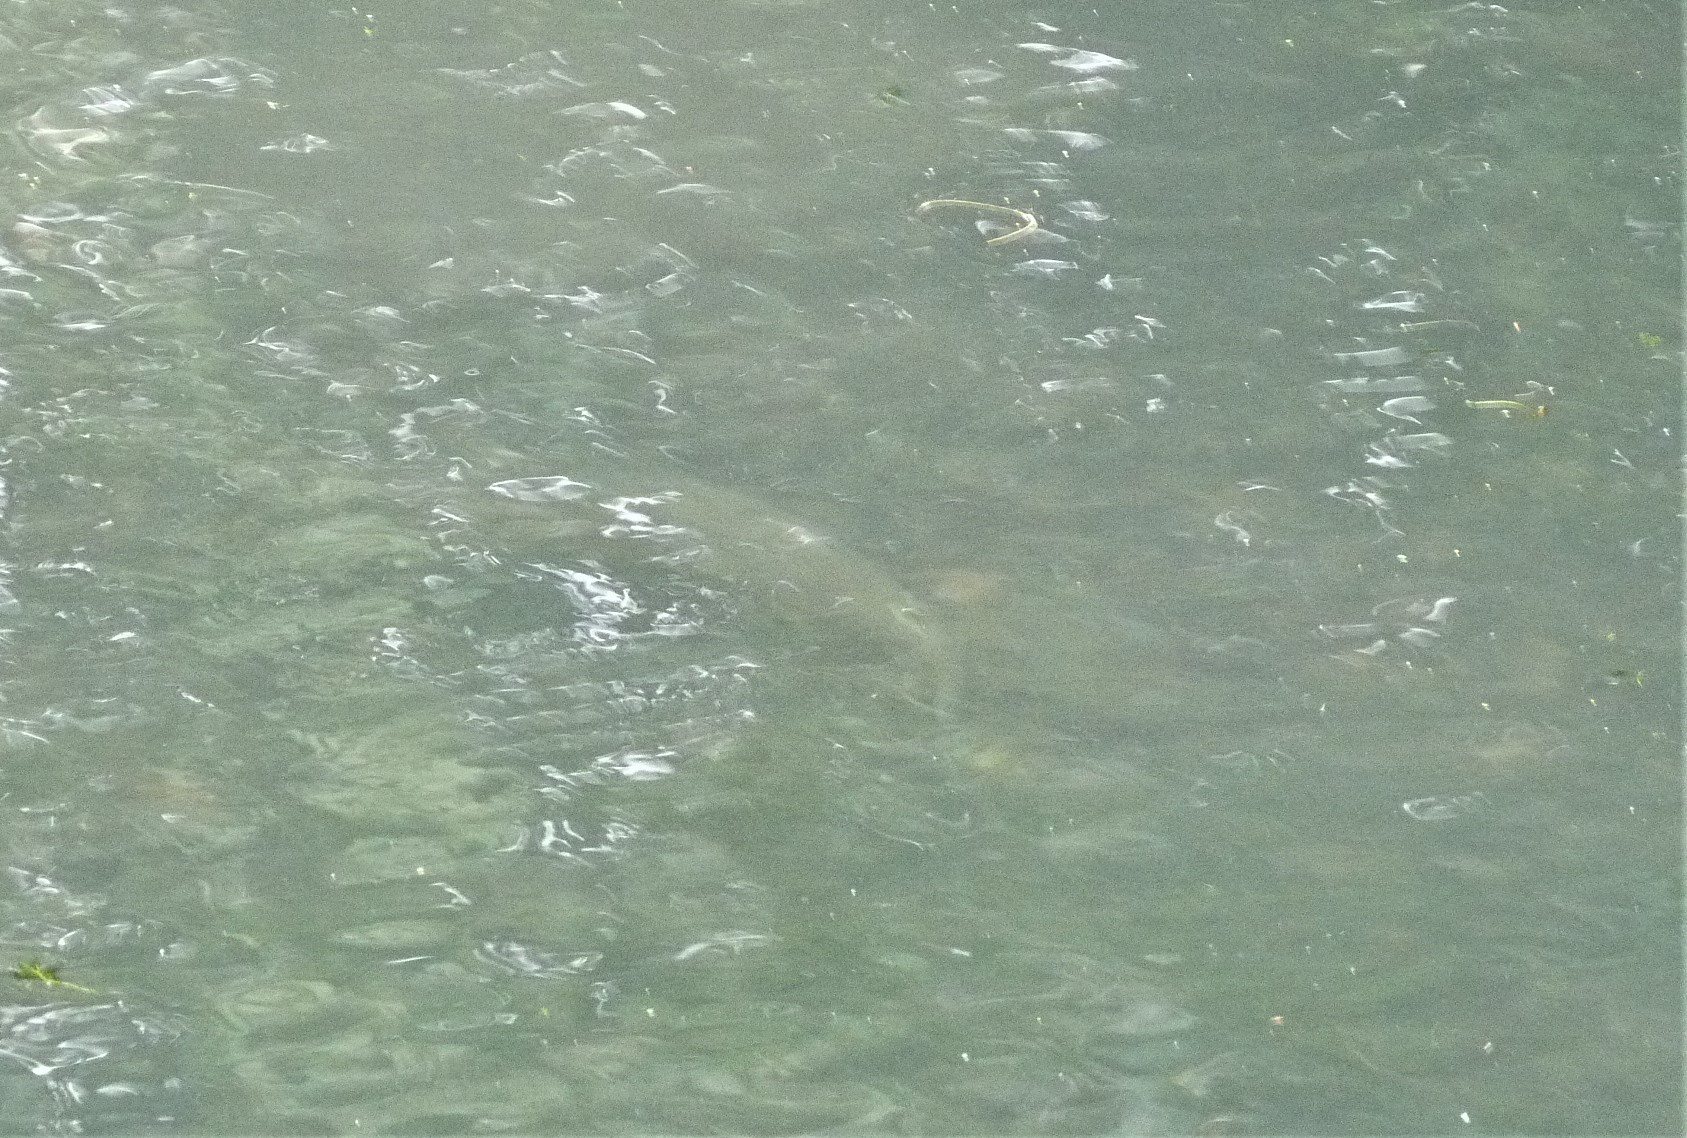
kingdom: Animalia
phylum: Chordata
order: Salmoniformes
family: Salmonidae
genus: Salmo
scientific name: Salmo trutta
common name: Brown trout
